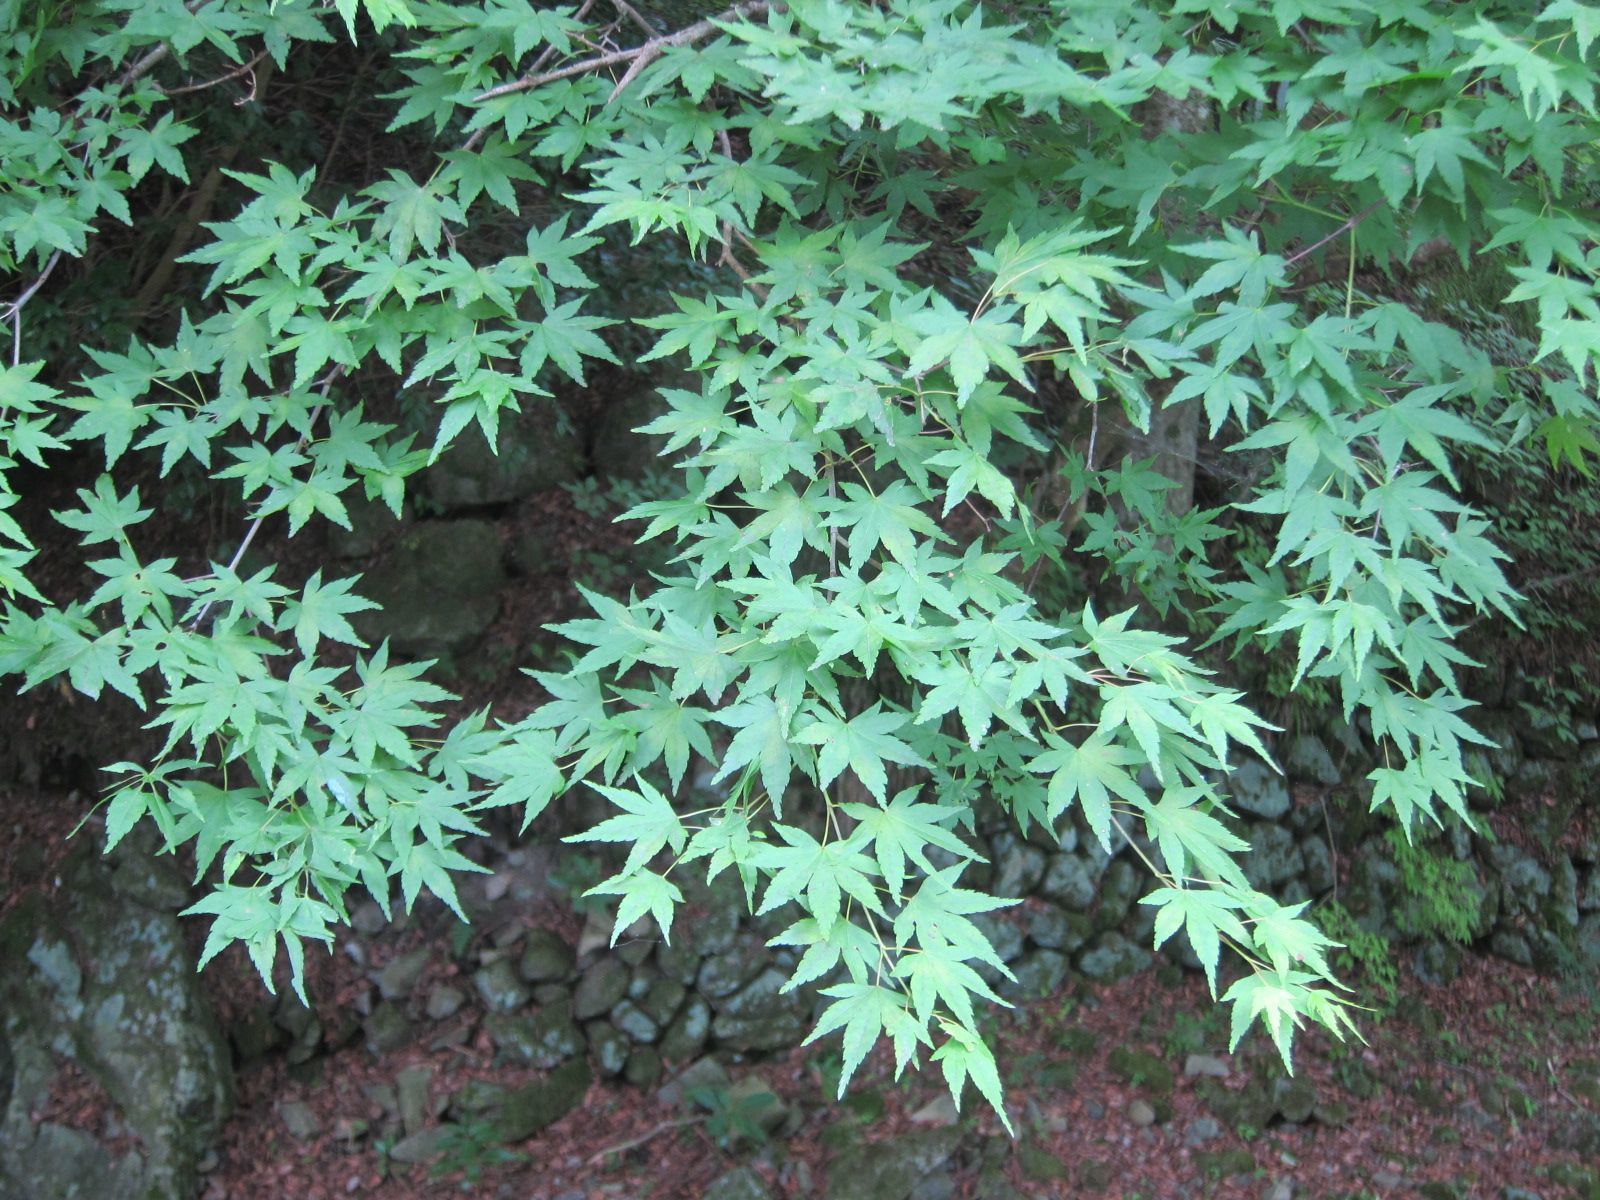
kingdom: Plantae
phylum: Tracheophyta
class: Magnoliopsida
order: Sapindales
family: Sapindaceae
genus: Acer
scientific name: Acer palmatum
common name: Japanese maple
